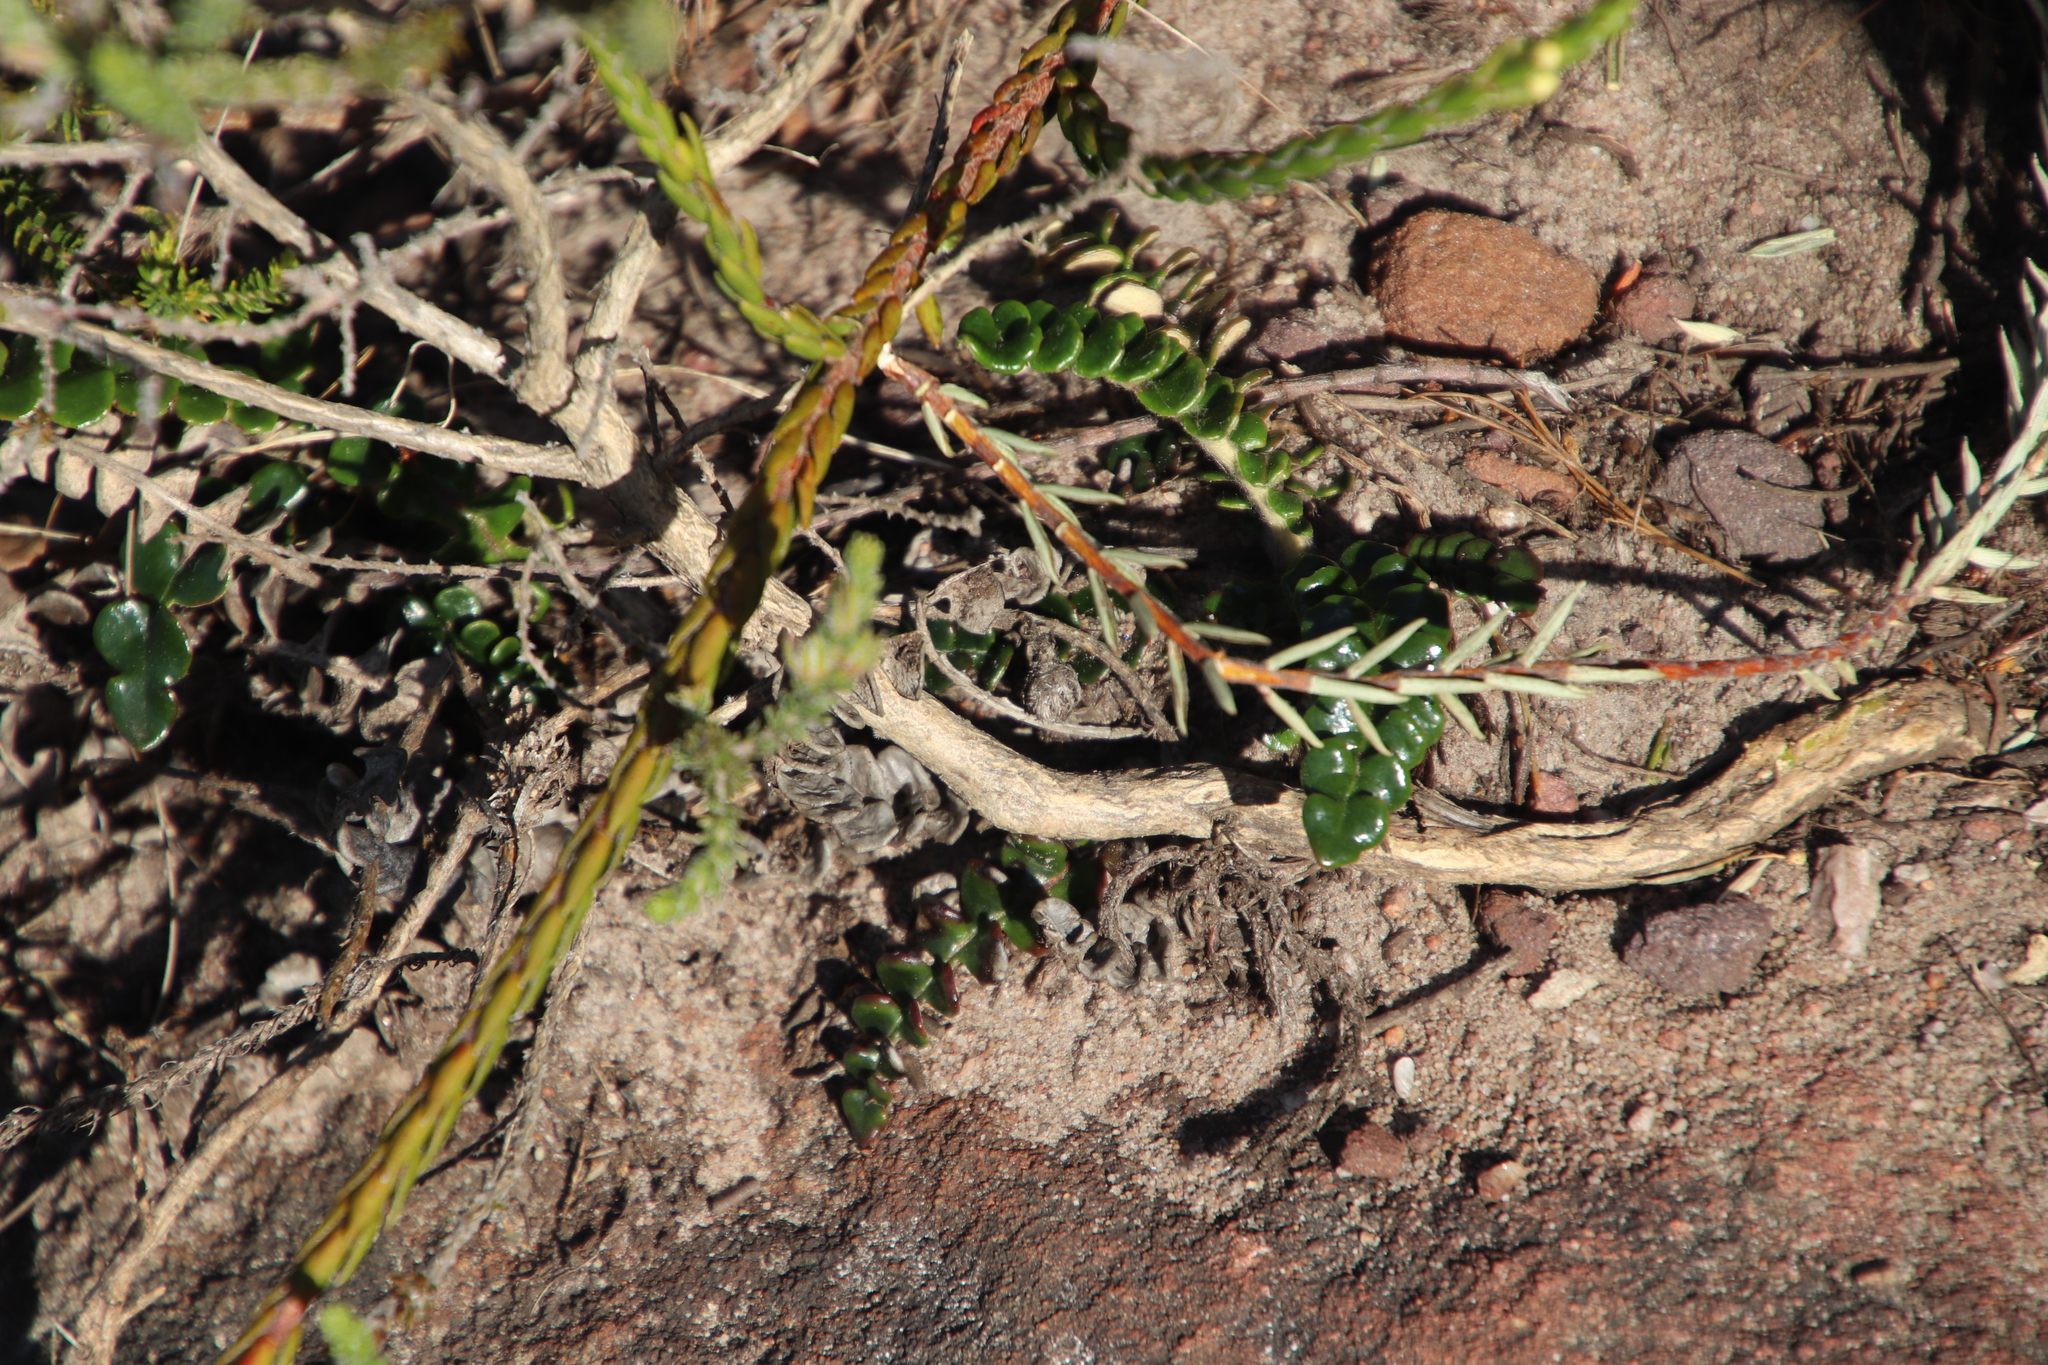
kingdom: Plantae
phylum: Tracheophyta
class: Magnoliopsida
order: Asterales
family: Asteraceae
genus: Gerbera
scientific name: Gerbera linnaei
